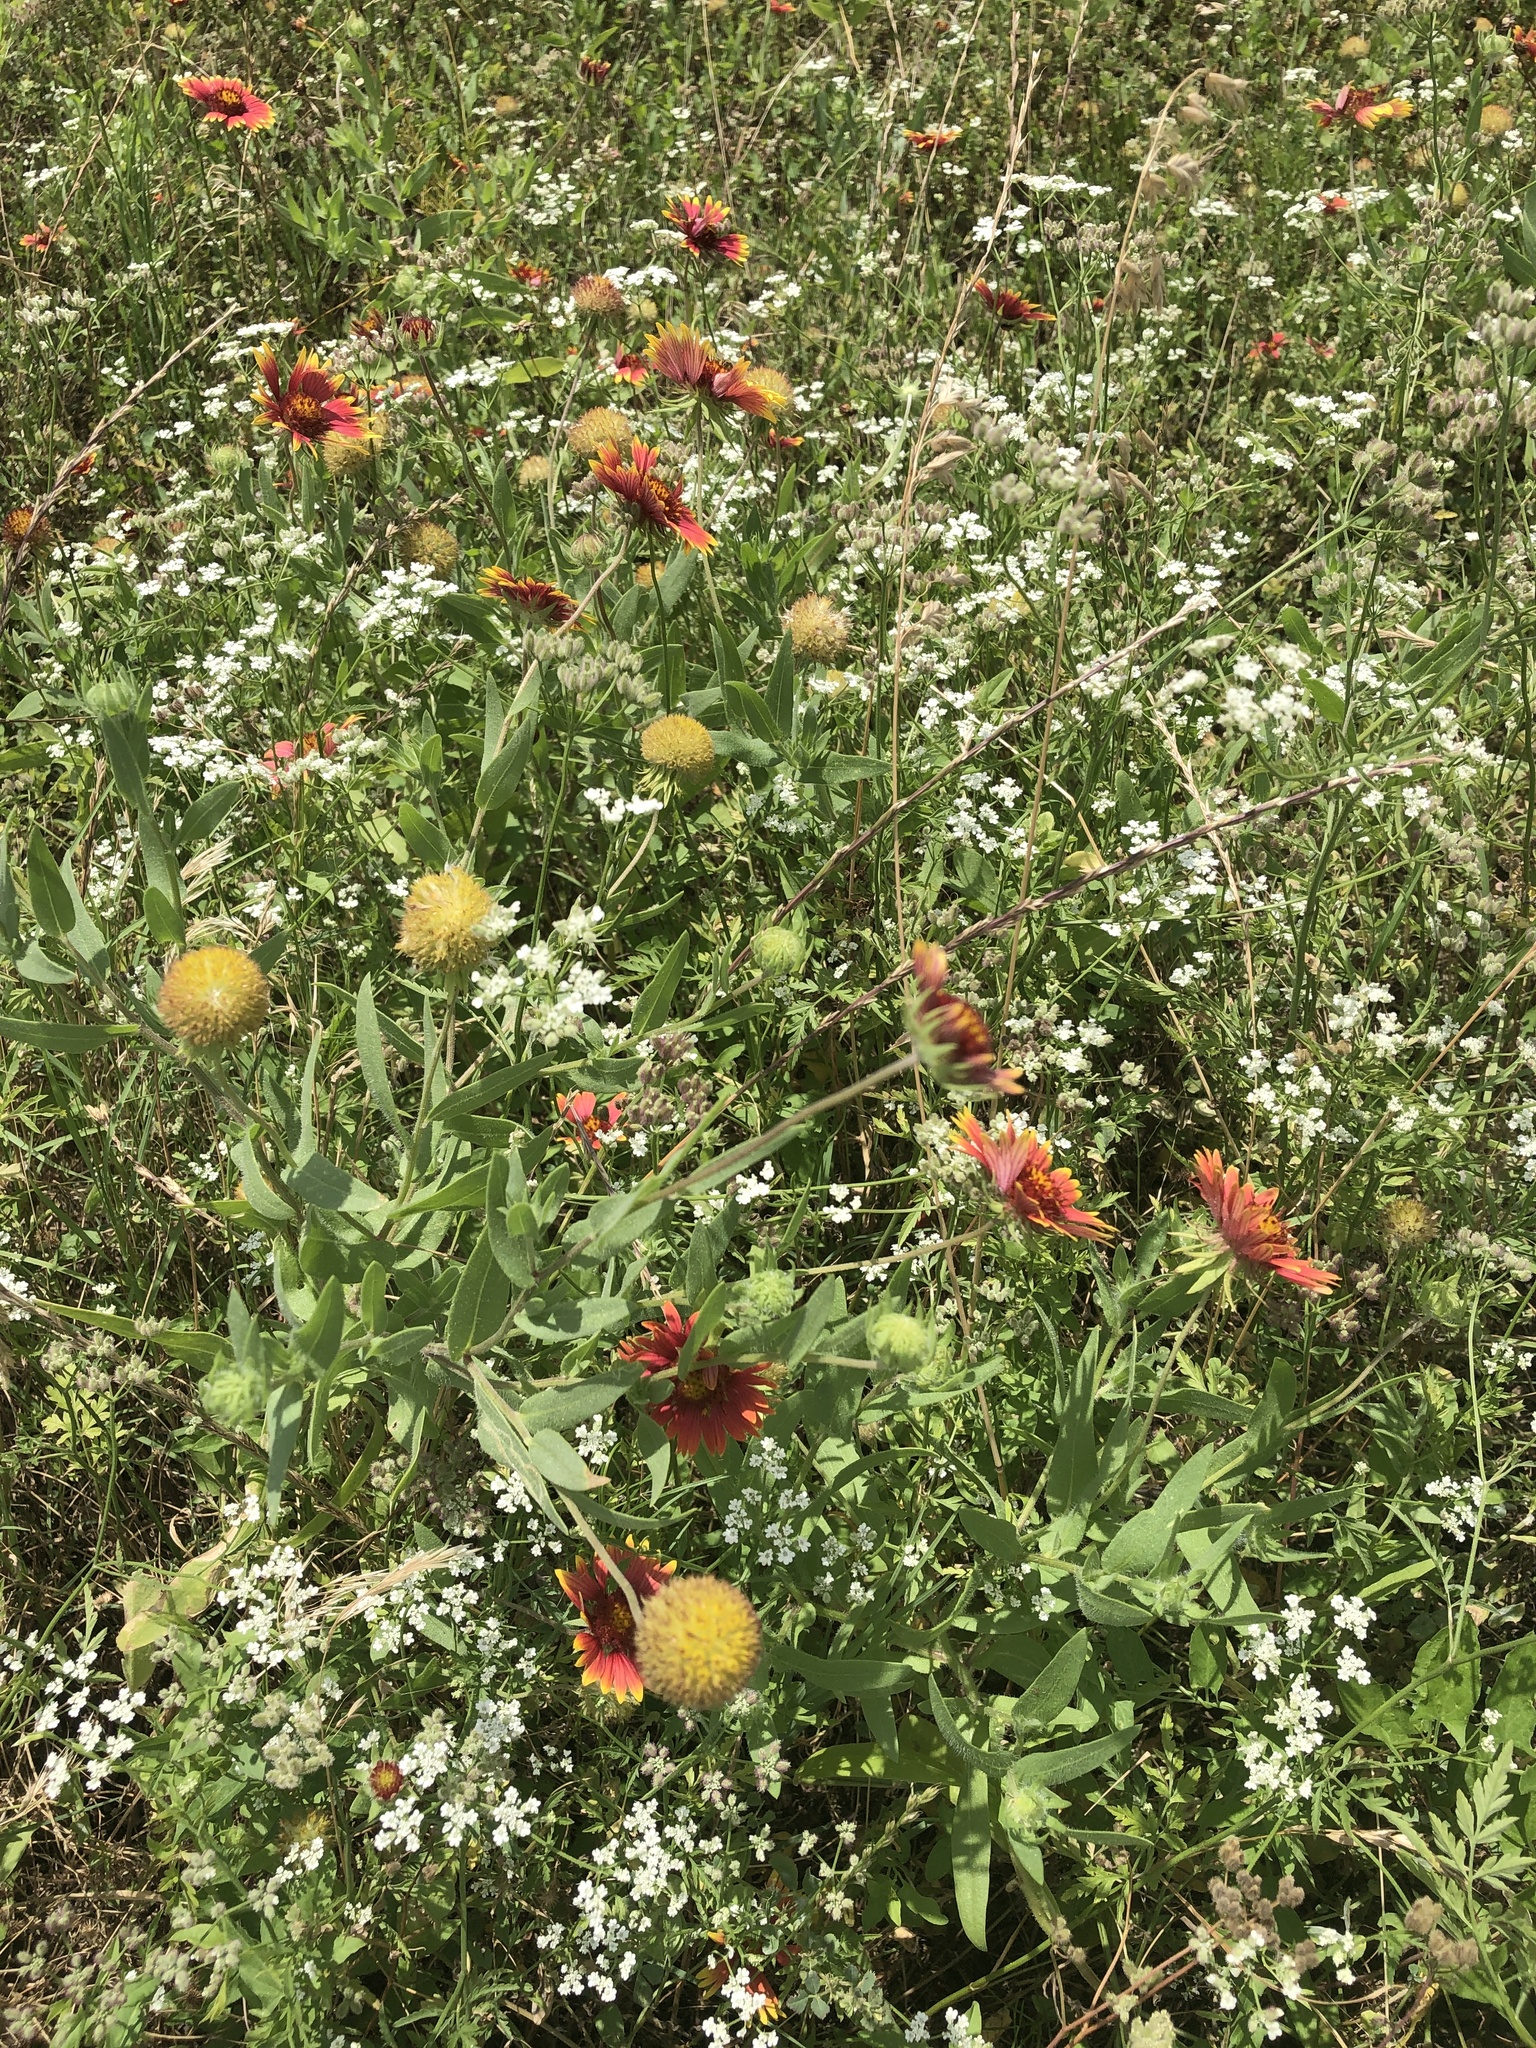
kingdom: Plantae
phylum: Tracheophyta
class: Magnoliopsida
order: Asterales
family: Asteraceae
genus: Gaillardia
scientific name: Gaillardia pulchella
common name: Firewheel
